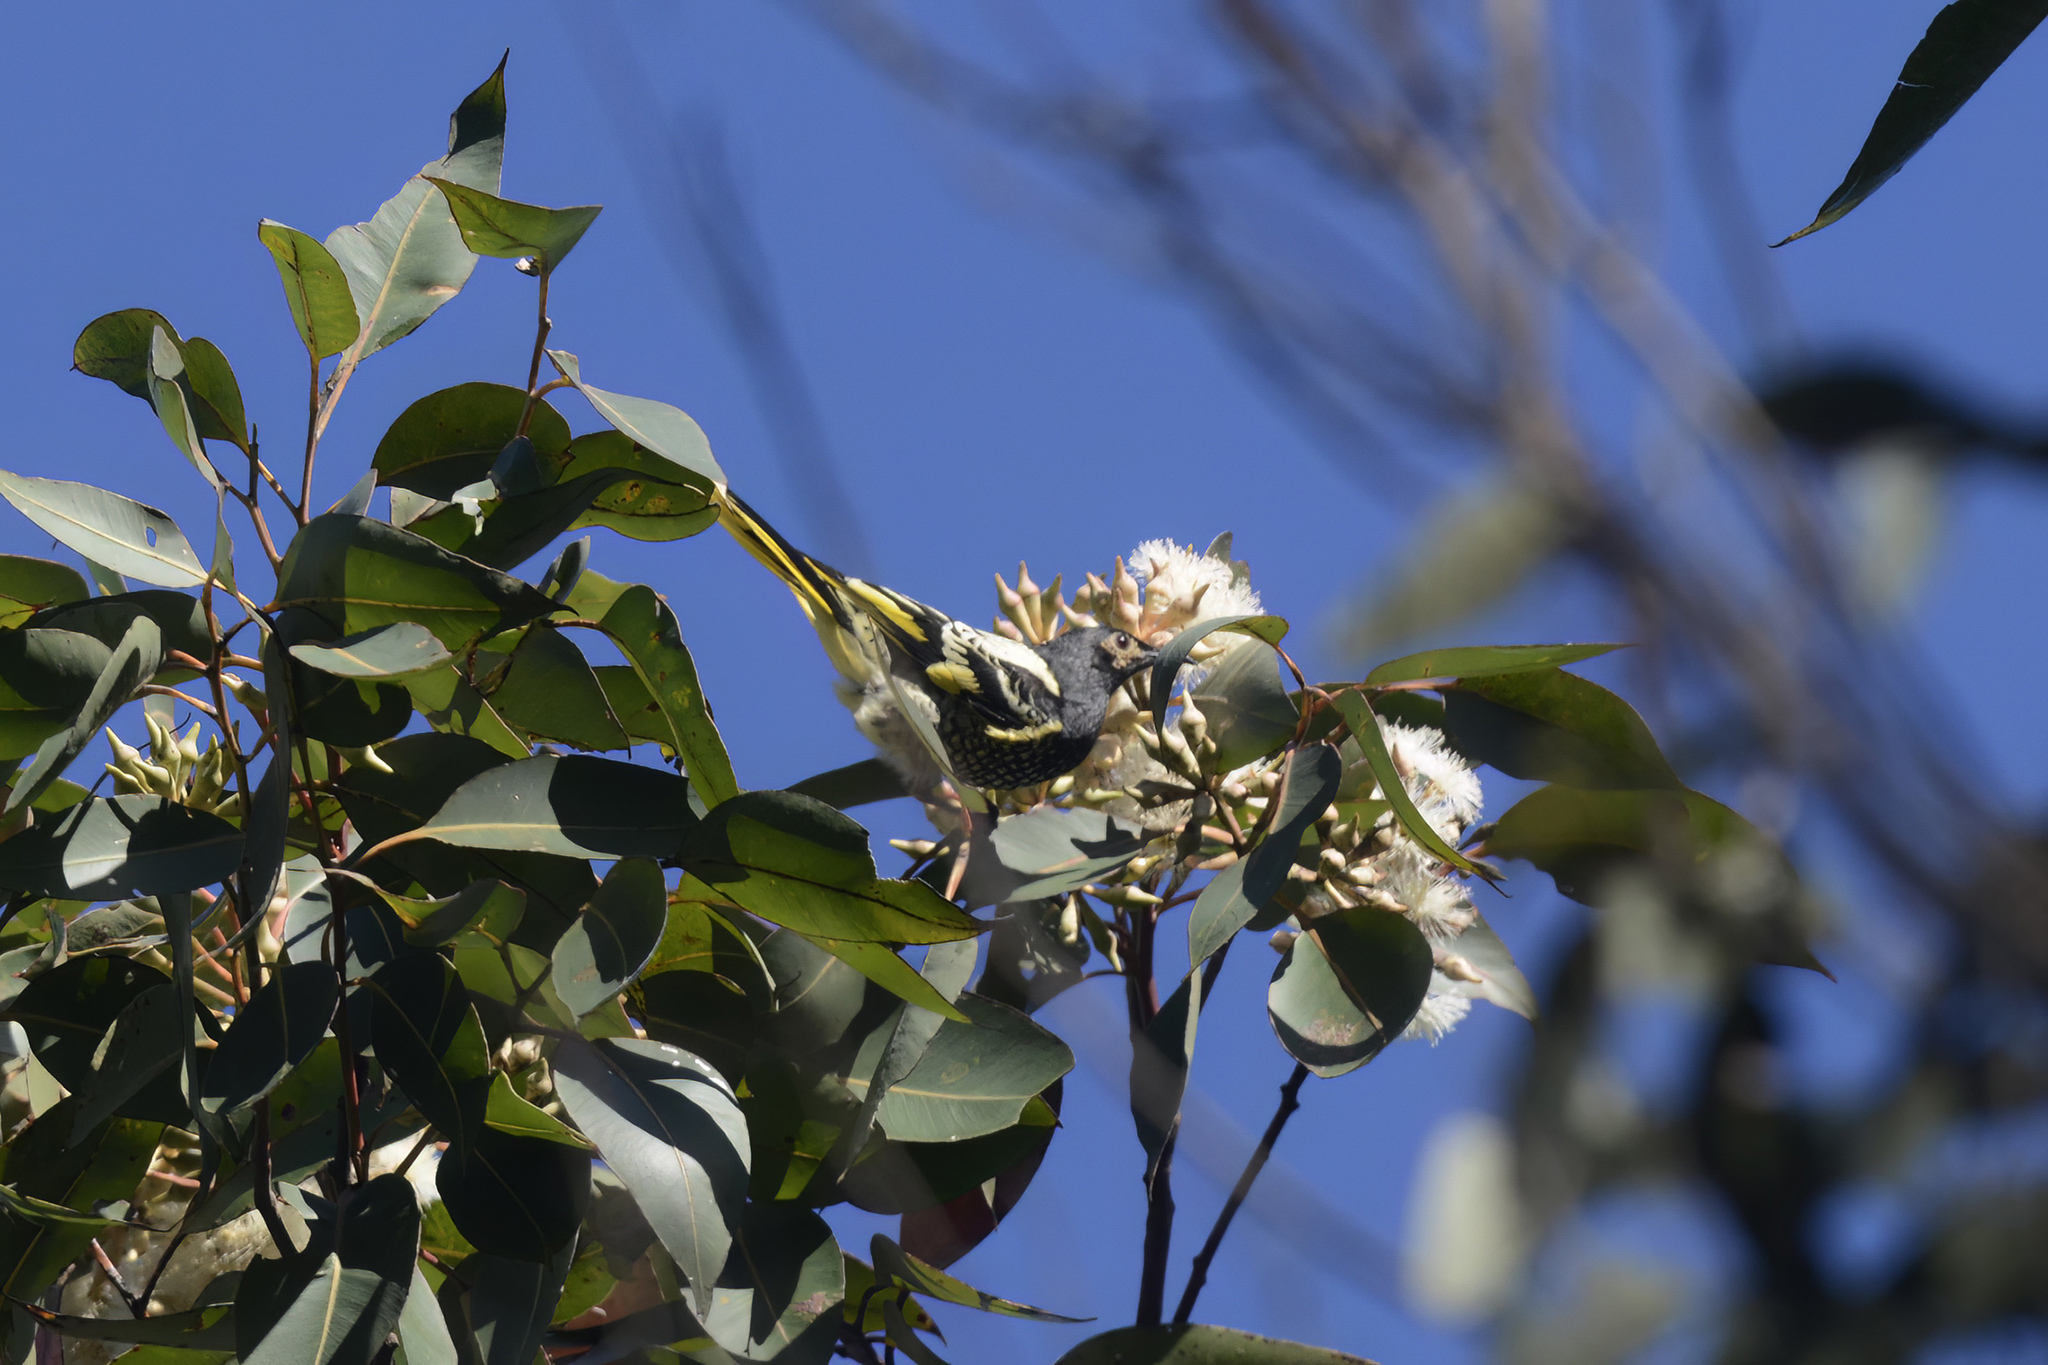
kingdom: Animalia
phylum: Chordata
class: Aves
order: Passeriformes
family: Meliphagidae
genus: Anthochaera
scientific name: Anthochaera phrygia
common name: Regent honeyeater
